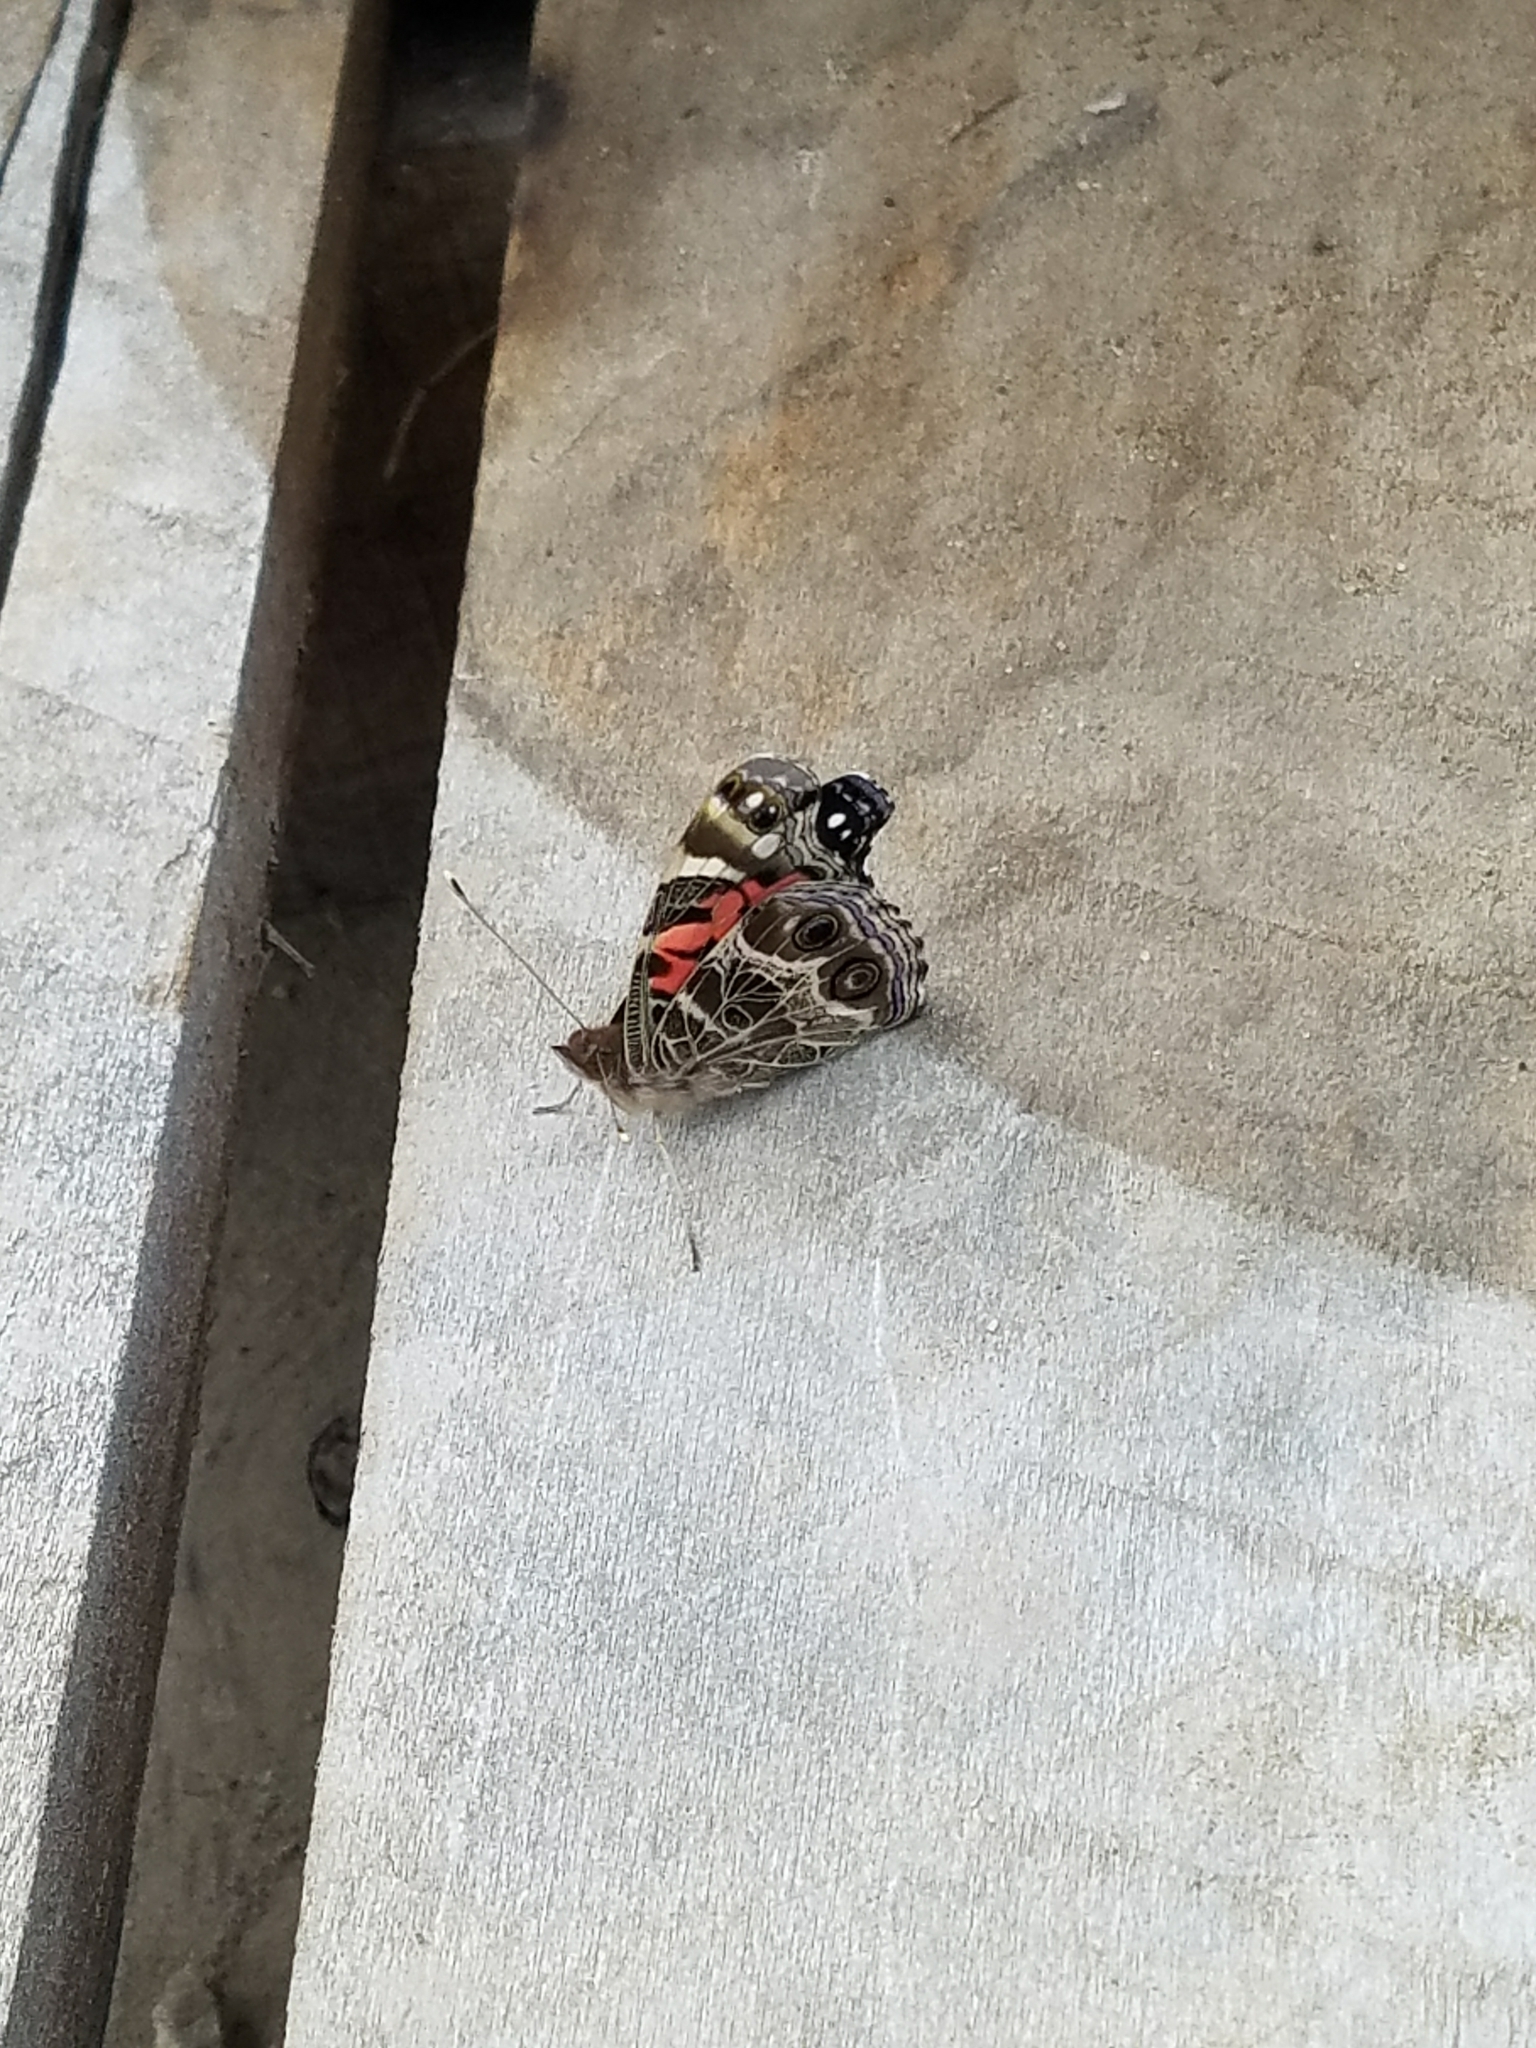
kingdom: Animalia
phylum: Arthropoda
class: Insecta
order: Lepidoptera
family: Nymphalidae
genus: Vanessa
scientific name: Vanessa virginiensis
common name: American lady
